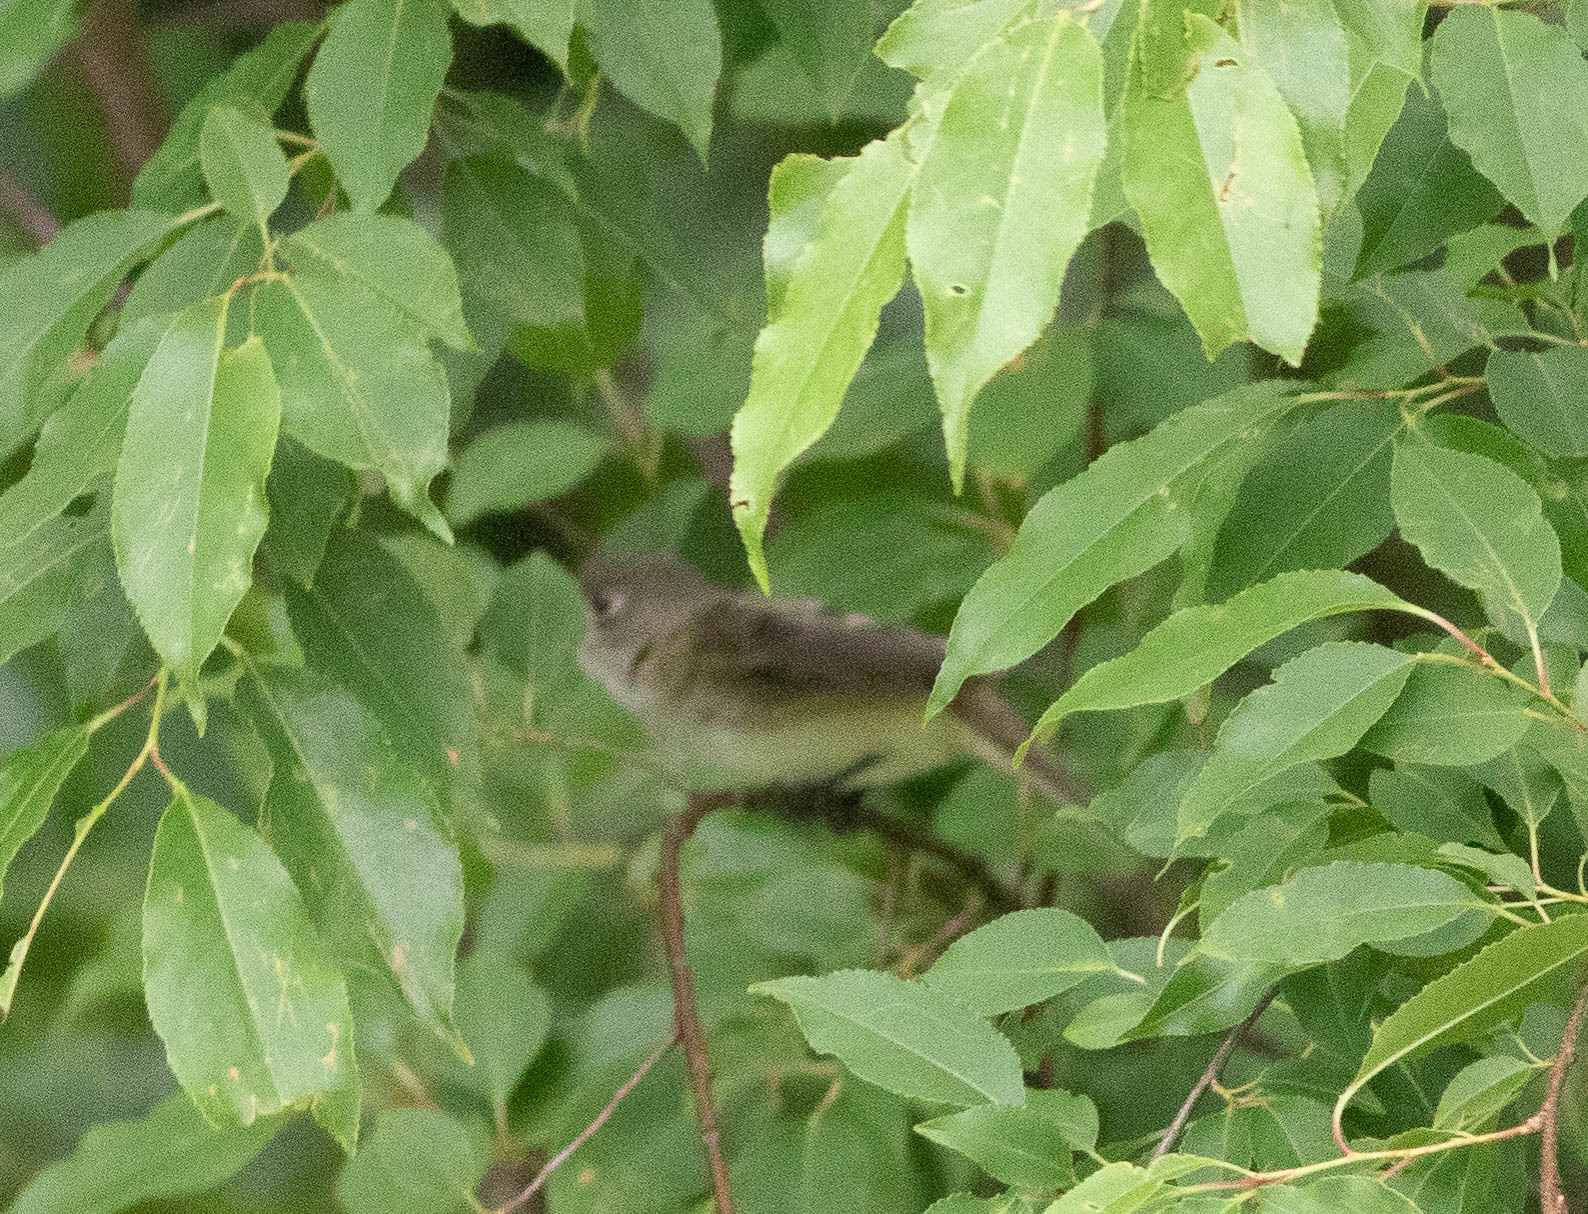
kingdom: Animalia
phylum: Chordata
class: Aves
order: Passeriformes
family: Tyrannidae
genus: Empidonax
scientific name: Empidonax alnorum
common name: Alder flycatcher
